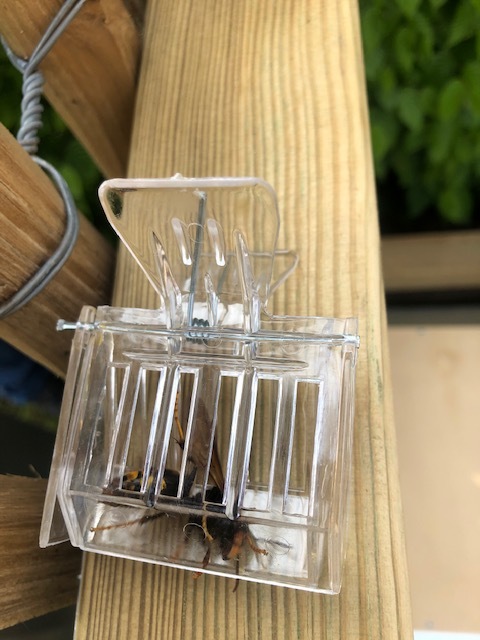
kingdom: Animalia
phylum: Arthropoda
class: Insecta
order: Hymenoptera
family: Vespidae
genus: Vespa
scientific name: Vespa velutina
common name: Asian hornet
